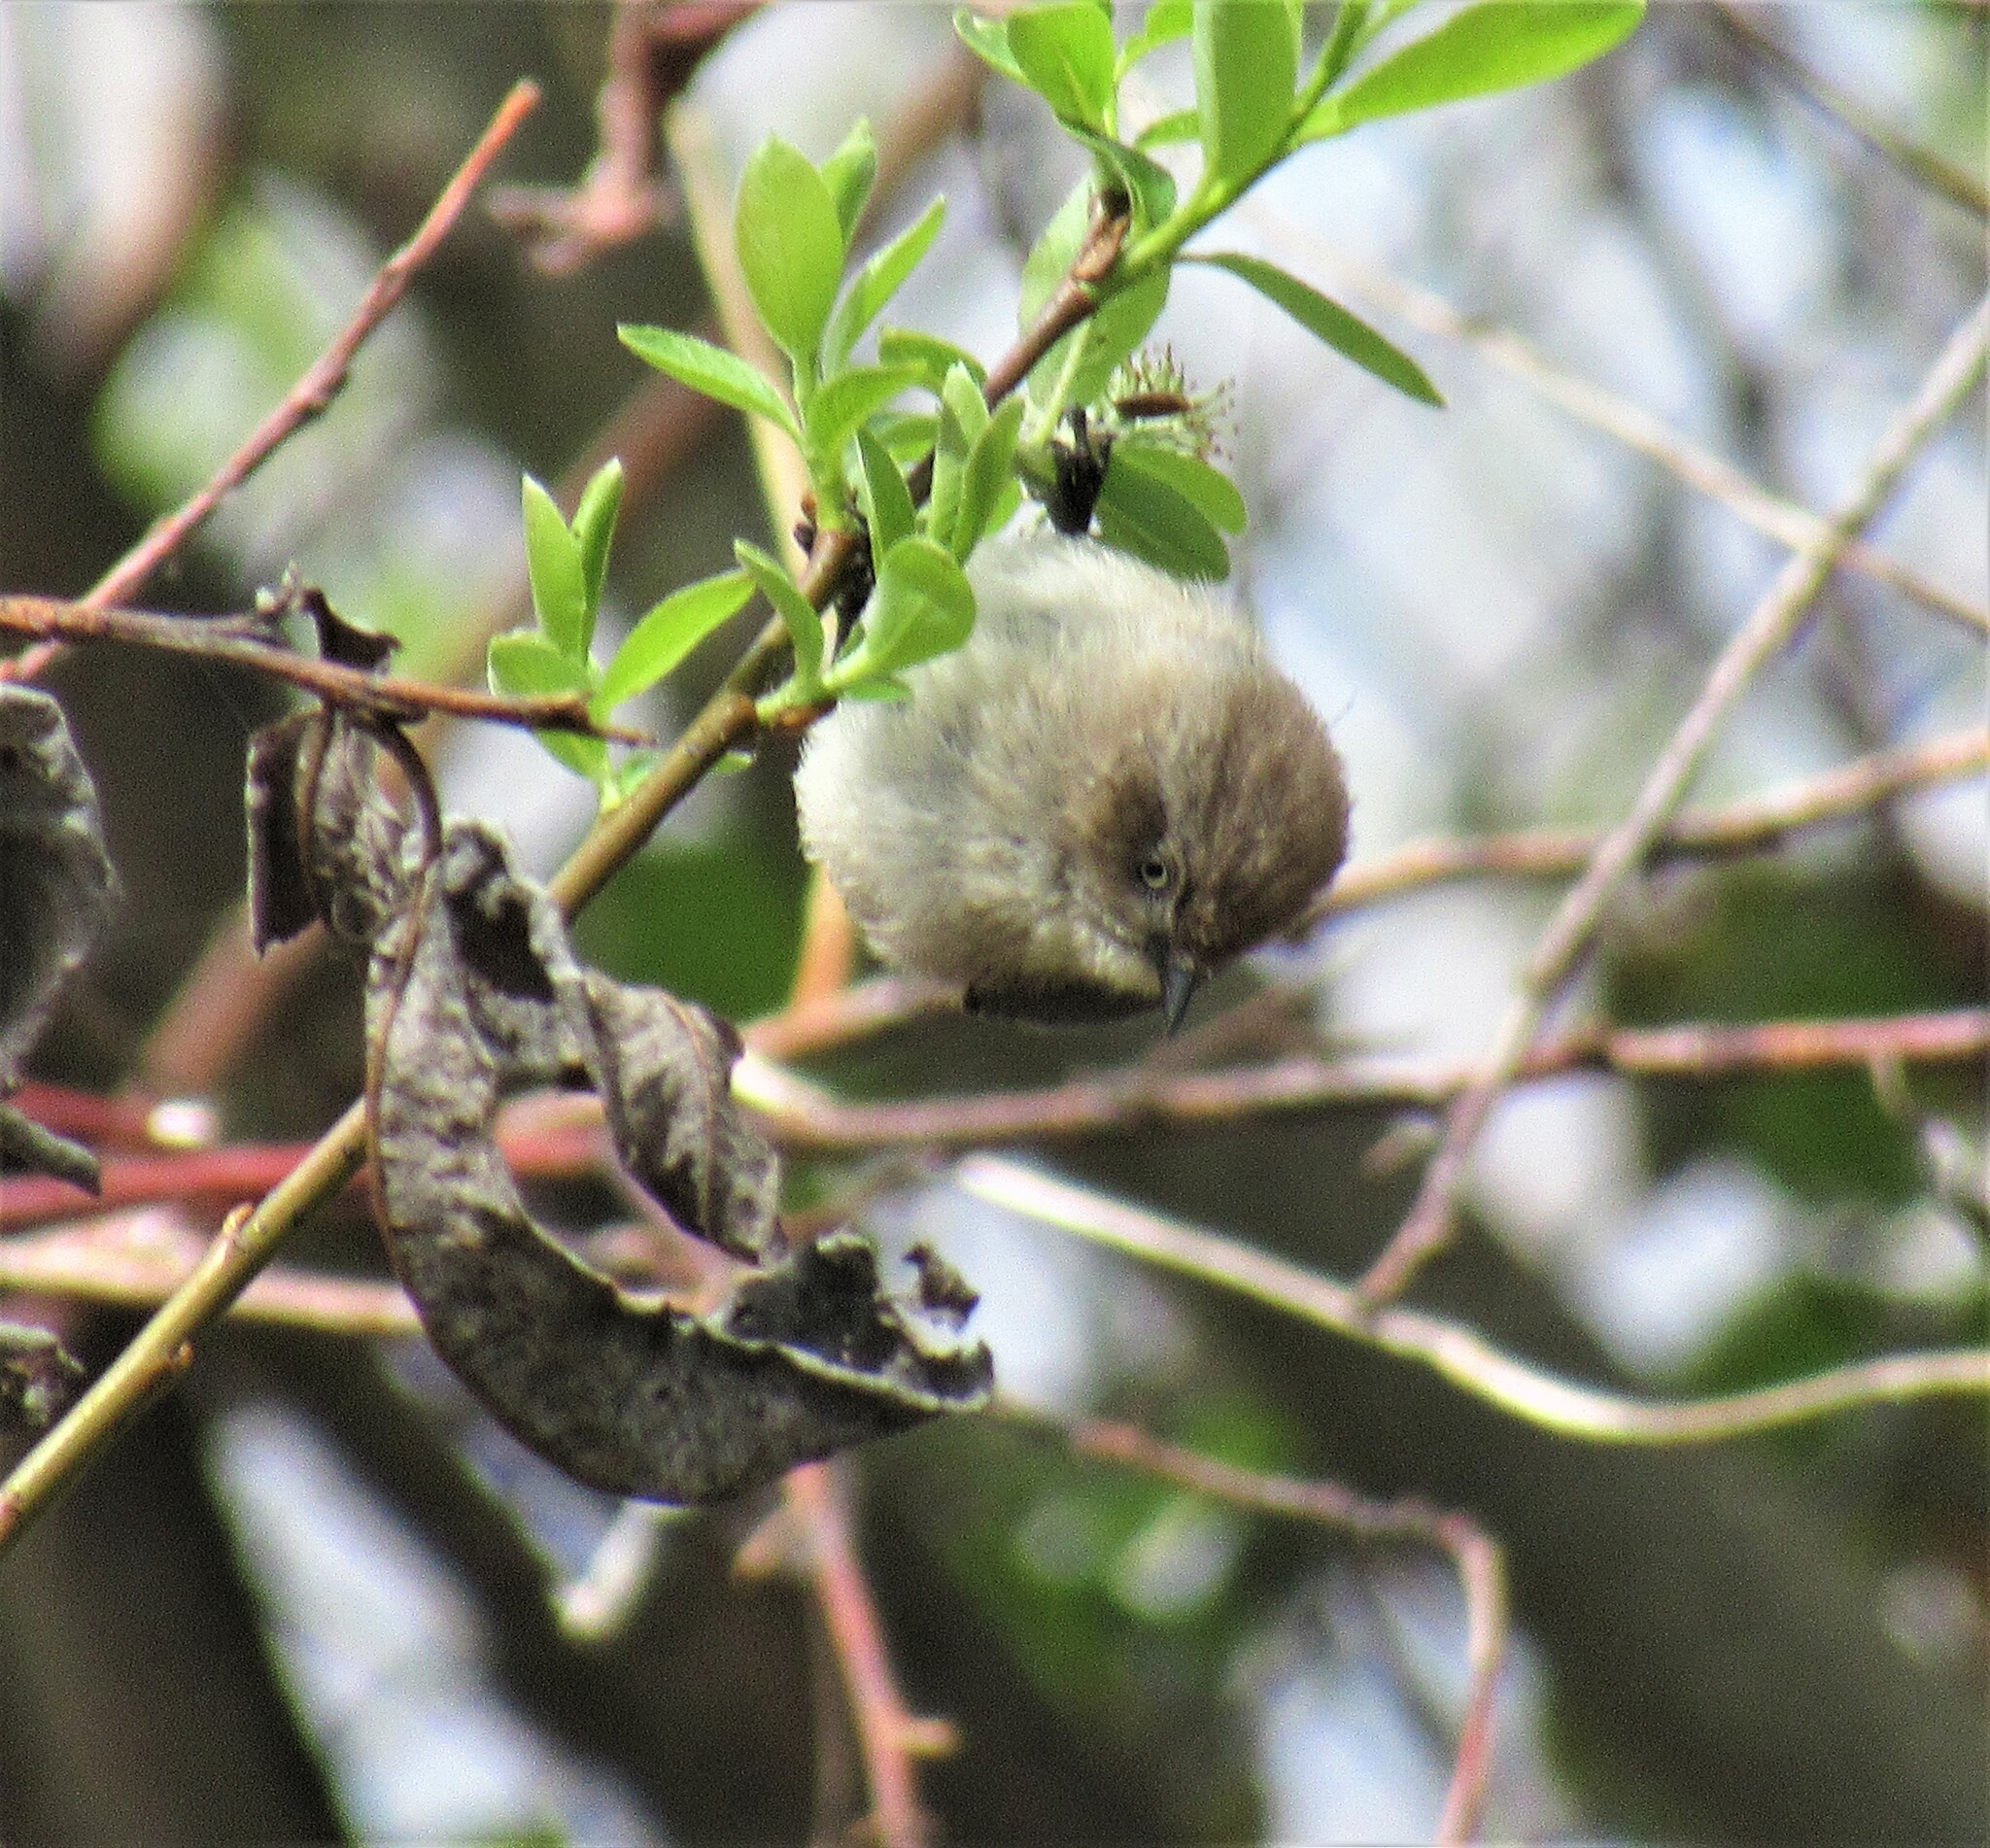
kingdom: Animalia
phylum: Chordata
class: Aves
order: Passeriformes
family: Aegithalidae
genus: Psaltriparus
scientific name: Psaltriparus minimus
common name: American bushtit
